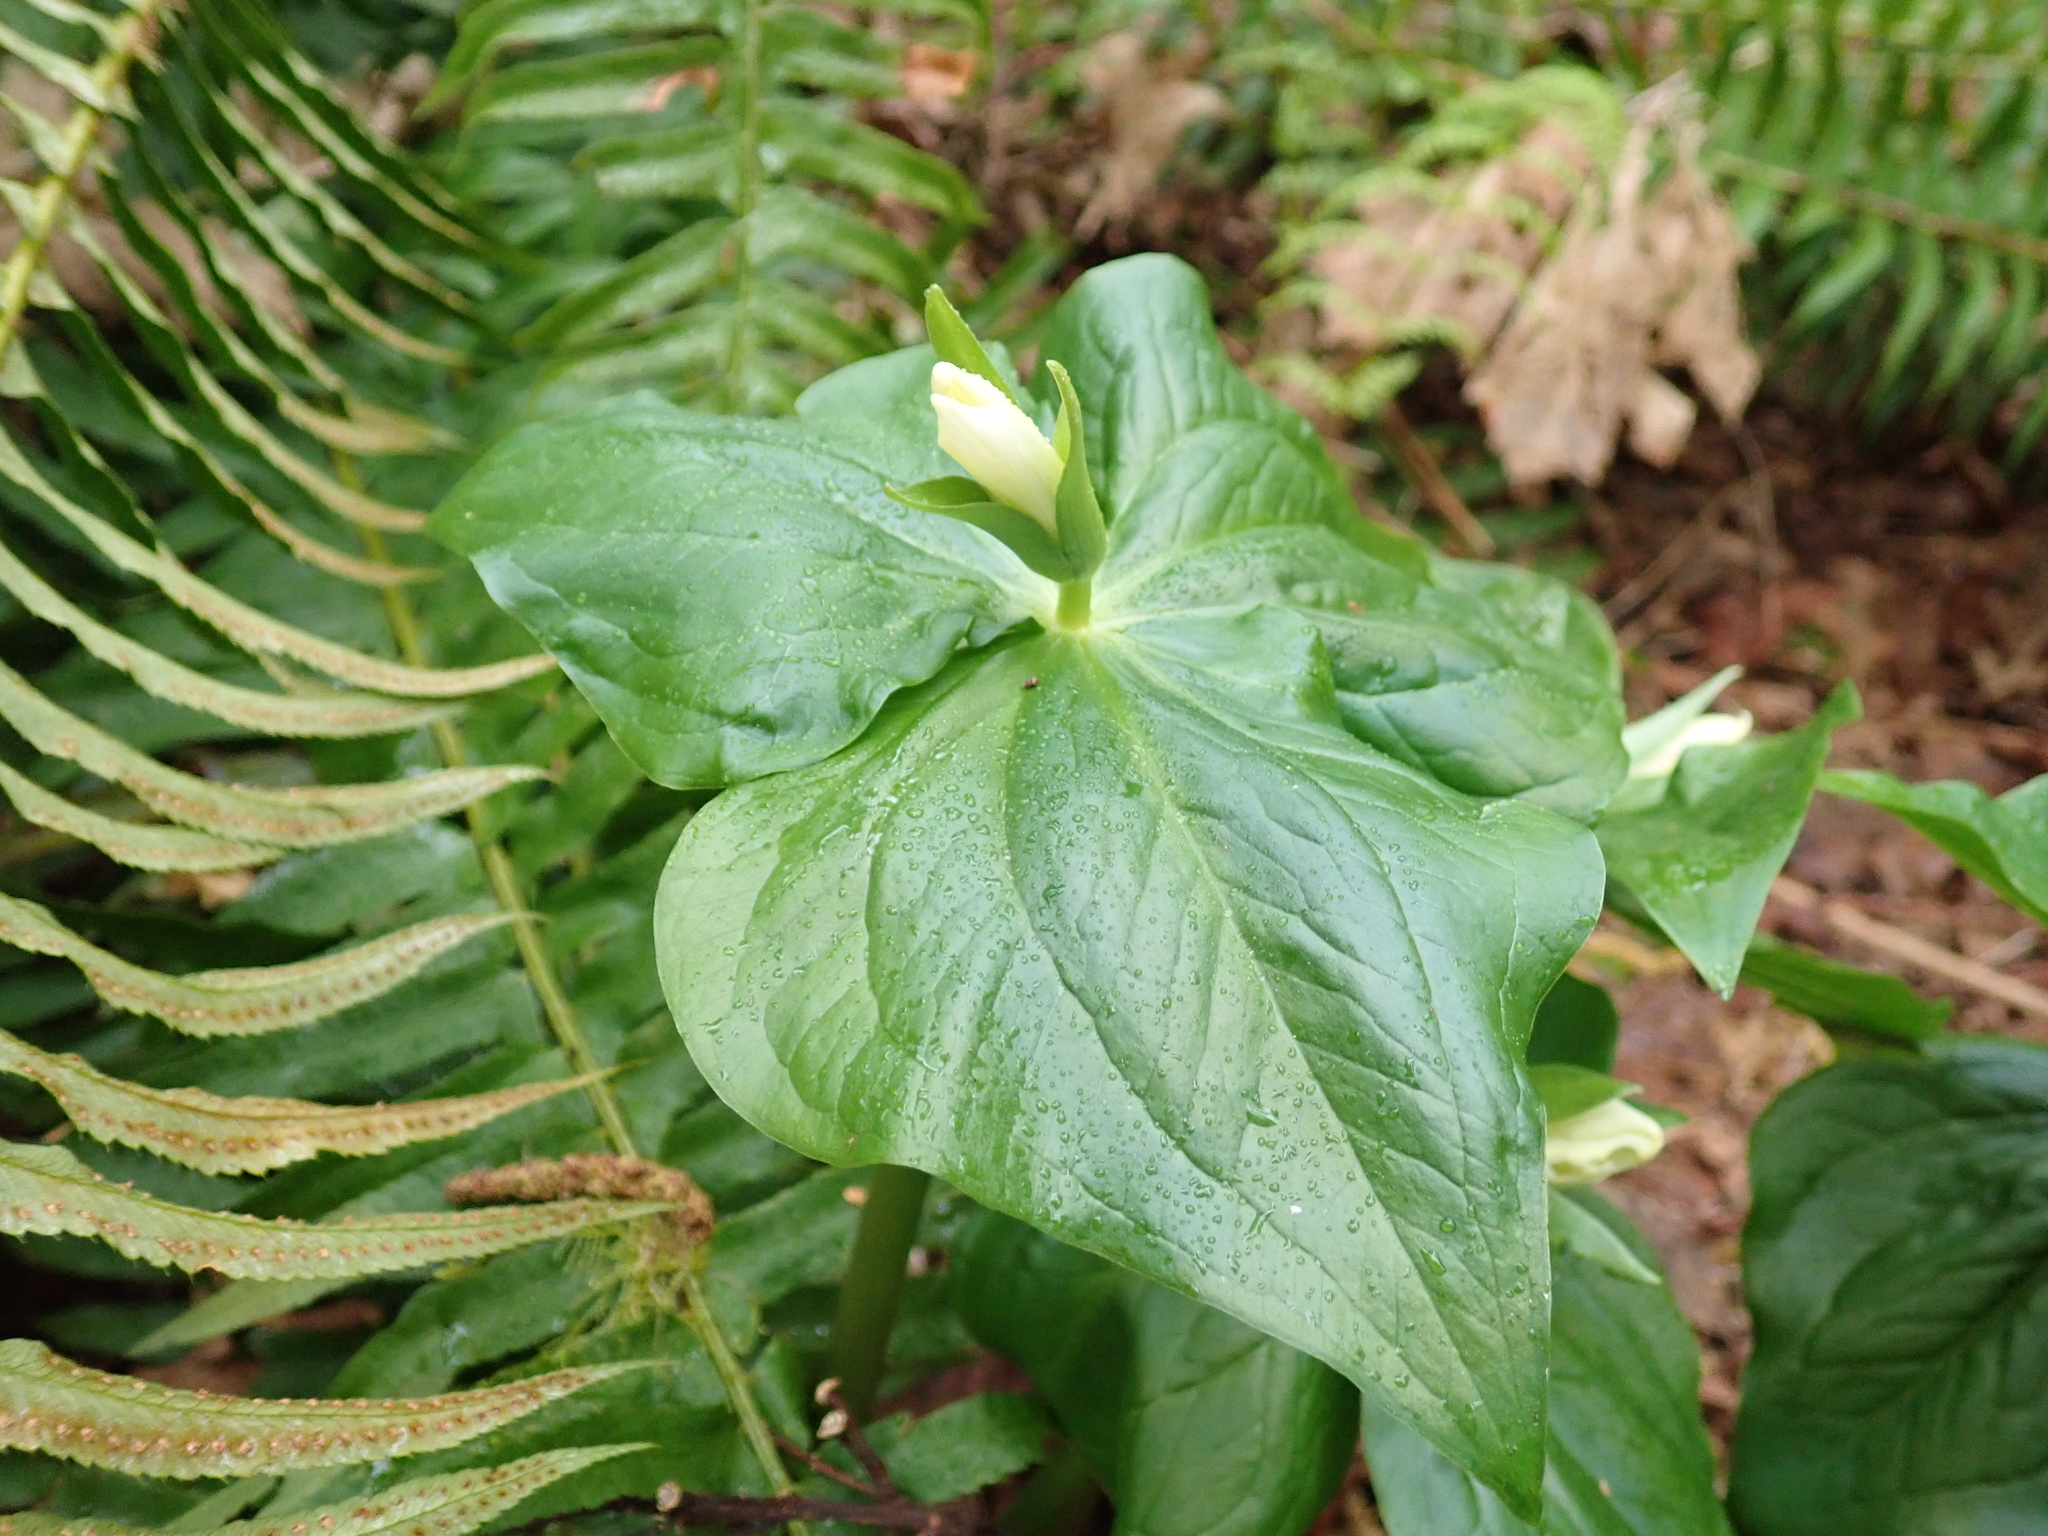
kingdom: Plantae
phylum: Tracheophyta
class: Liliopsida
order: Liliales
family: Melanthiaceae
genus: Trillium
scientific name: Trillium ovatum
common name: Pacific trillium
